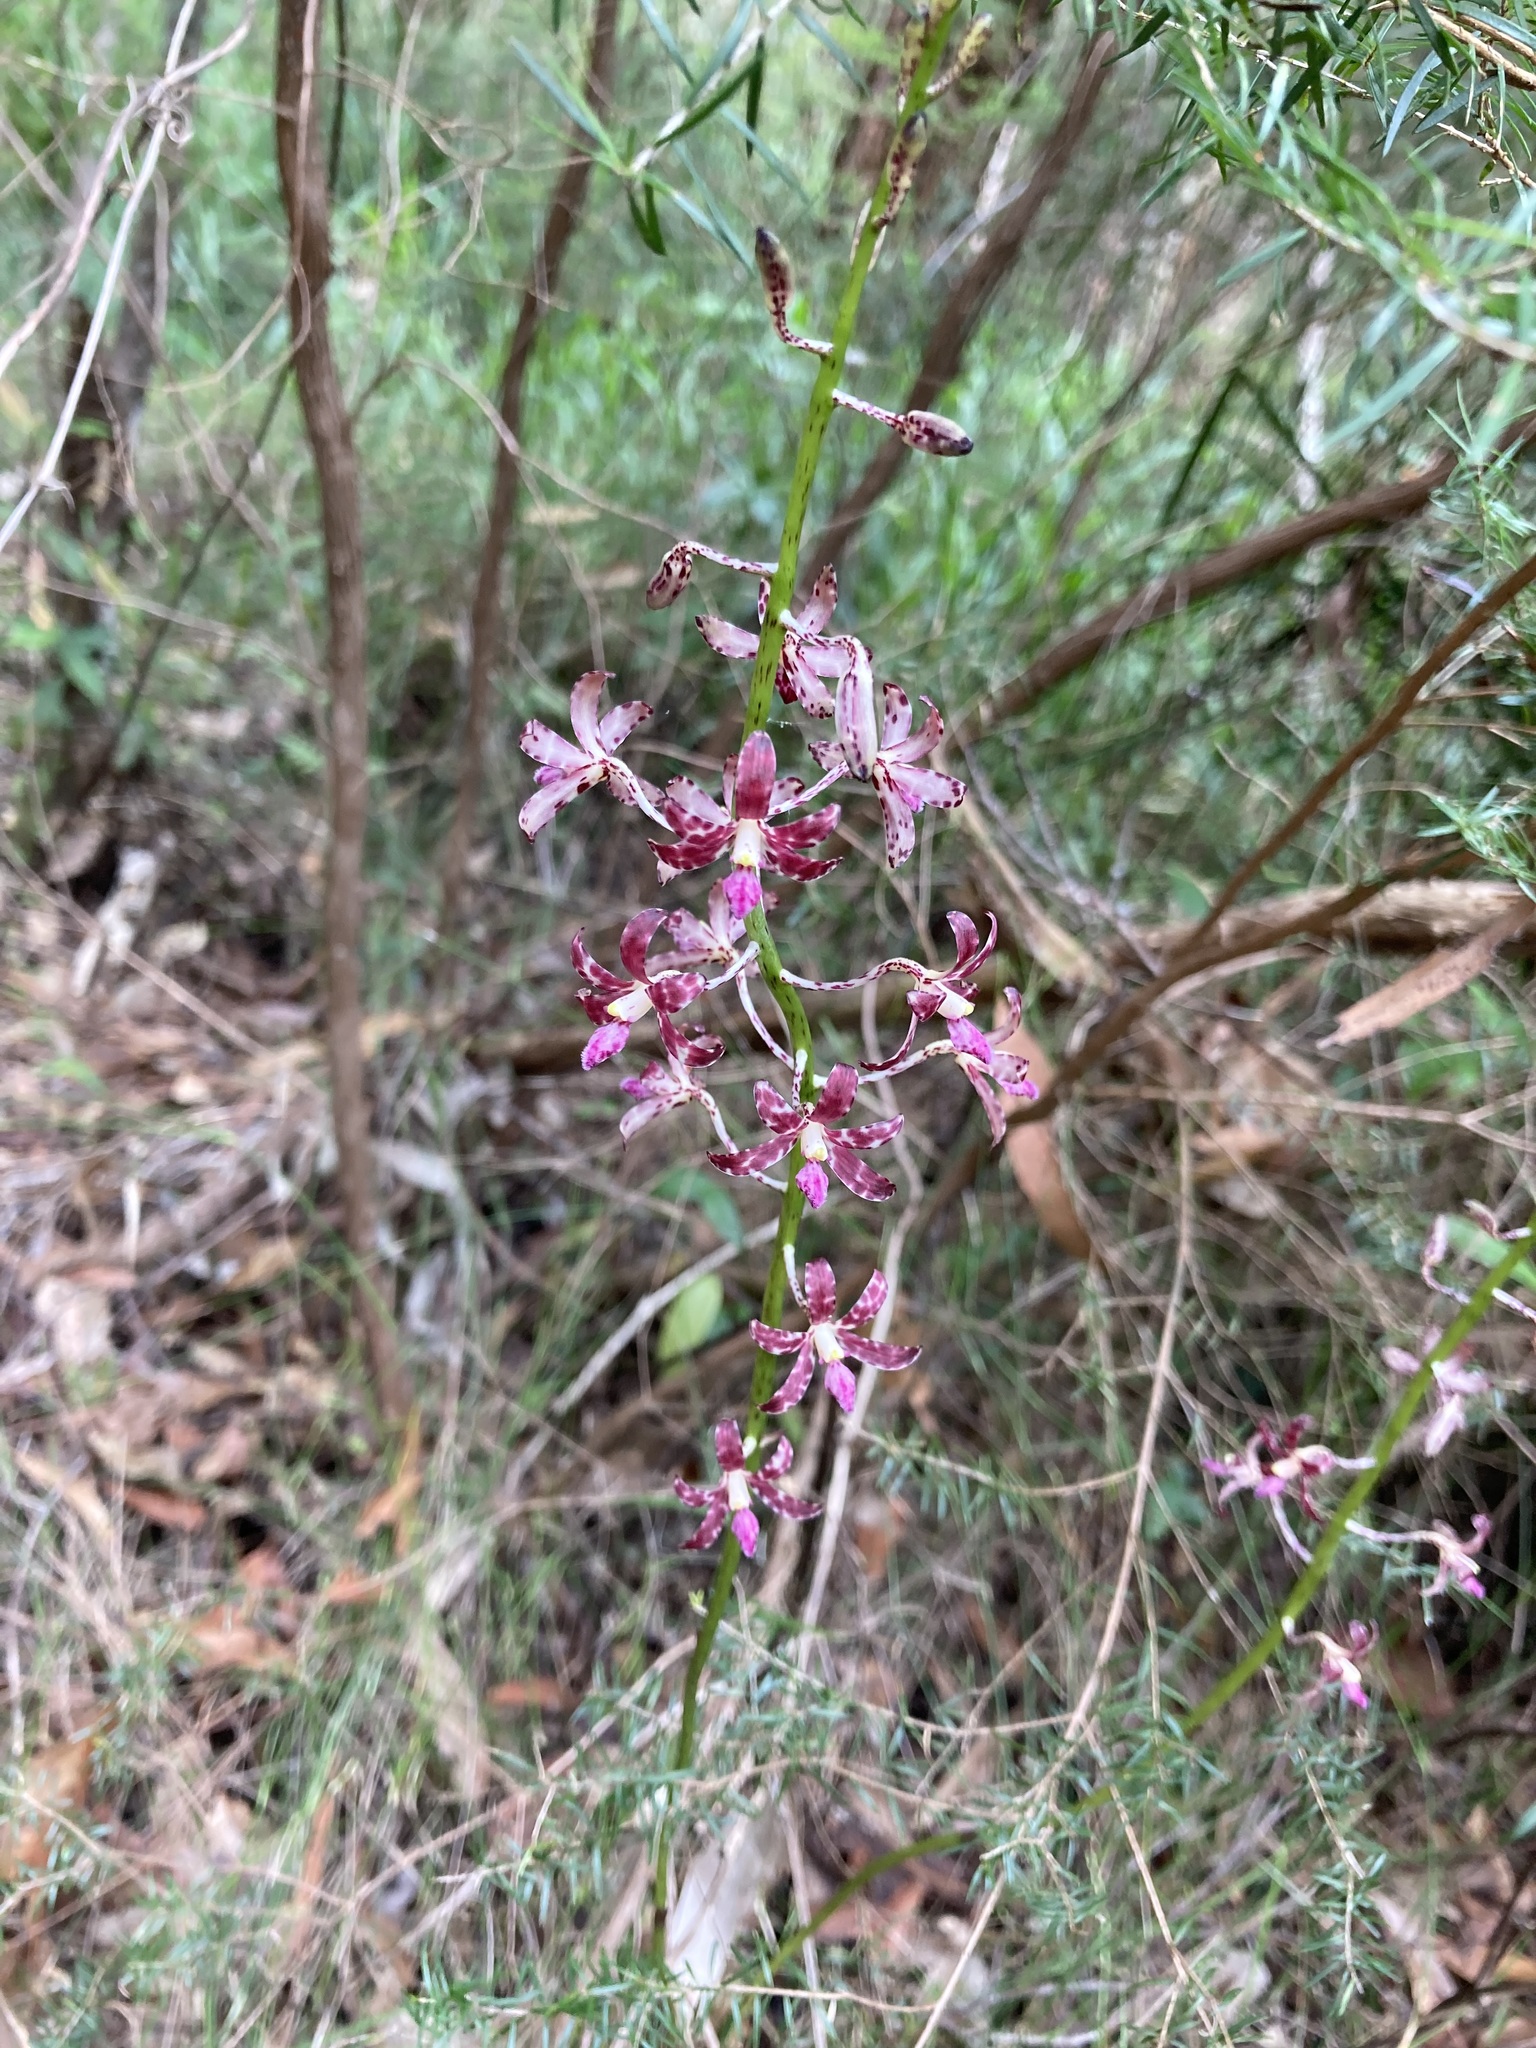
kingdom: Plantae
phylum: Tracheophyta
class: Liliopsida
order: Asparagales
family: Orchidaceae
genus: Dipodium
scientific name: Dipodium variegatum
